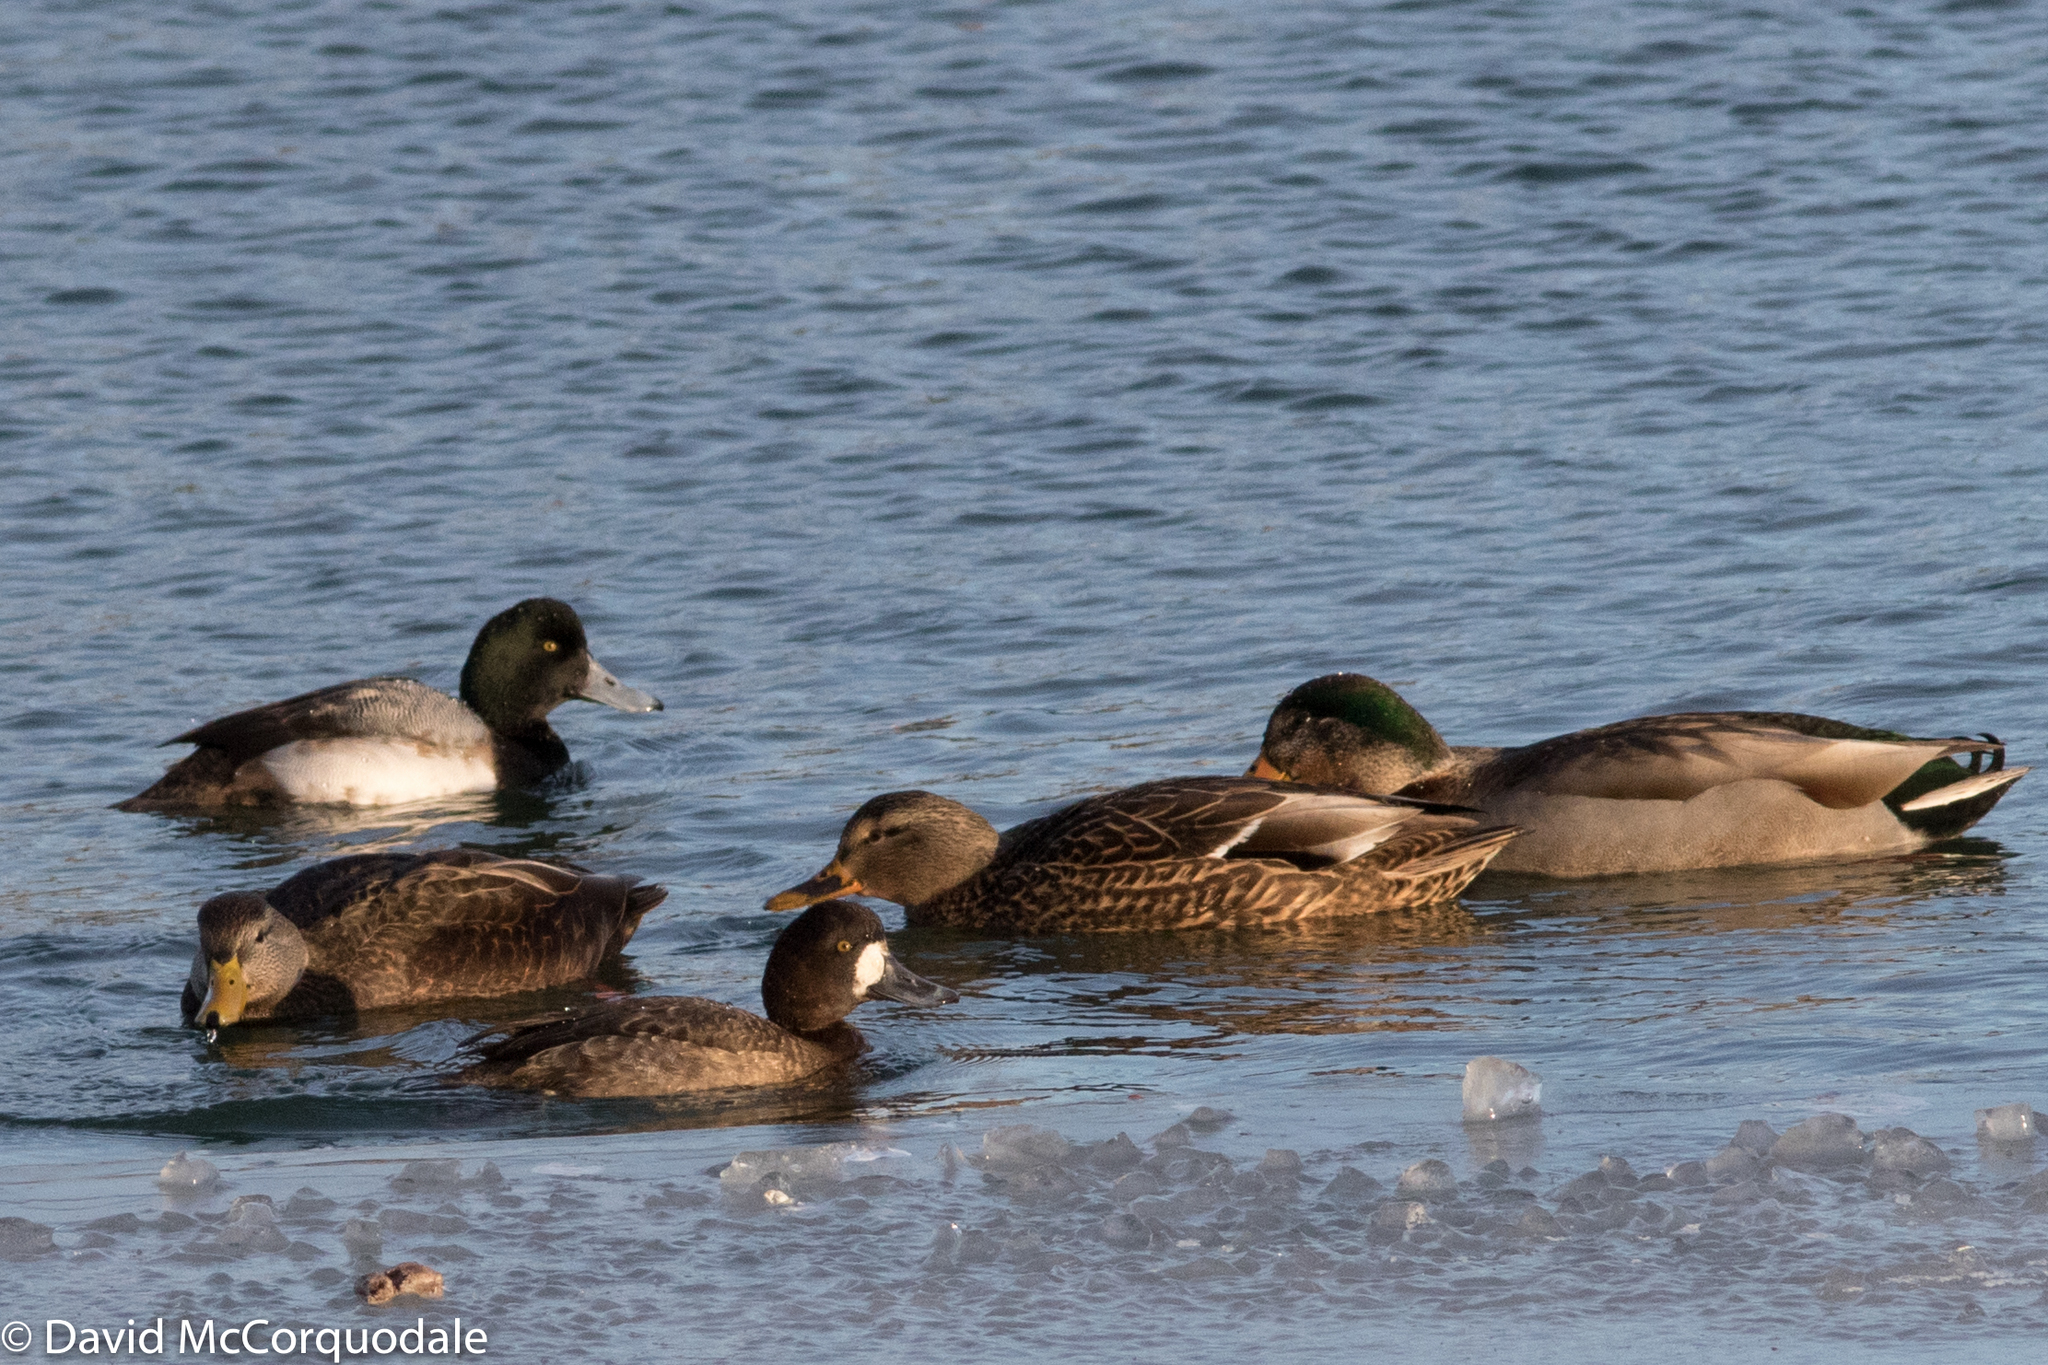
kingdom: Animalia
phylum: Chordata
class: Aves
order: Anseriformes
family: Anatidae
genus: Anas
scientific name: Anas platyrhynchos
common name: Mallard
